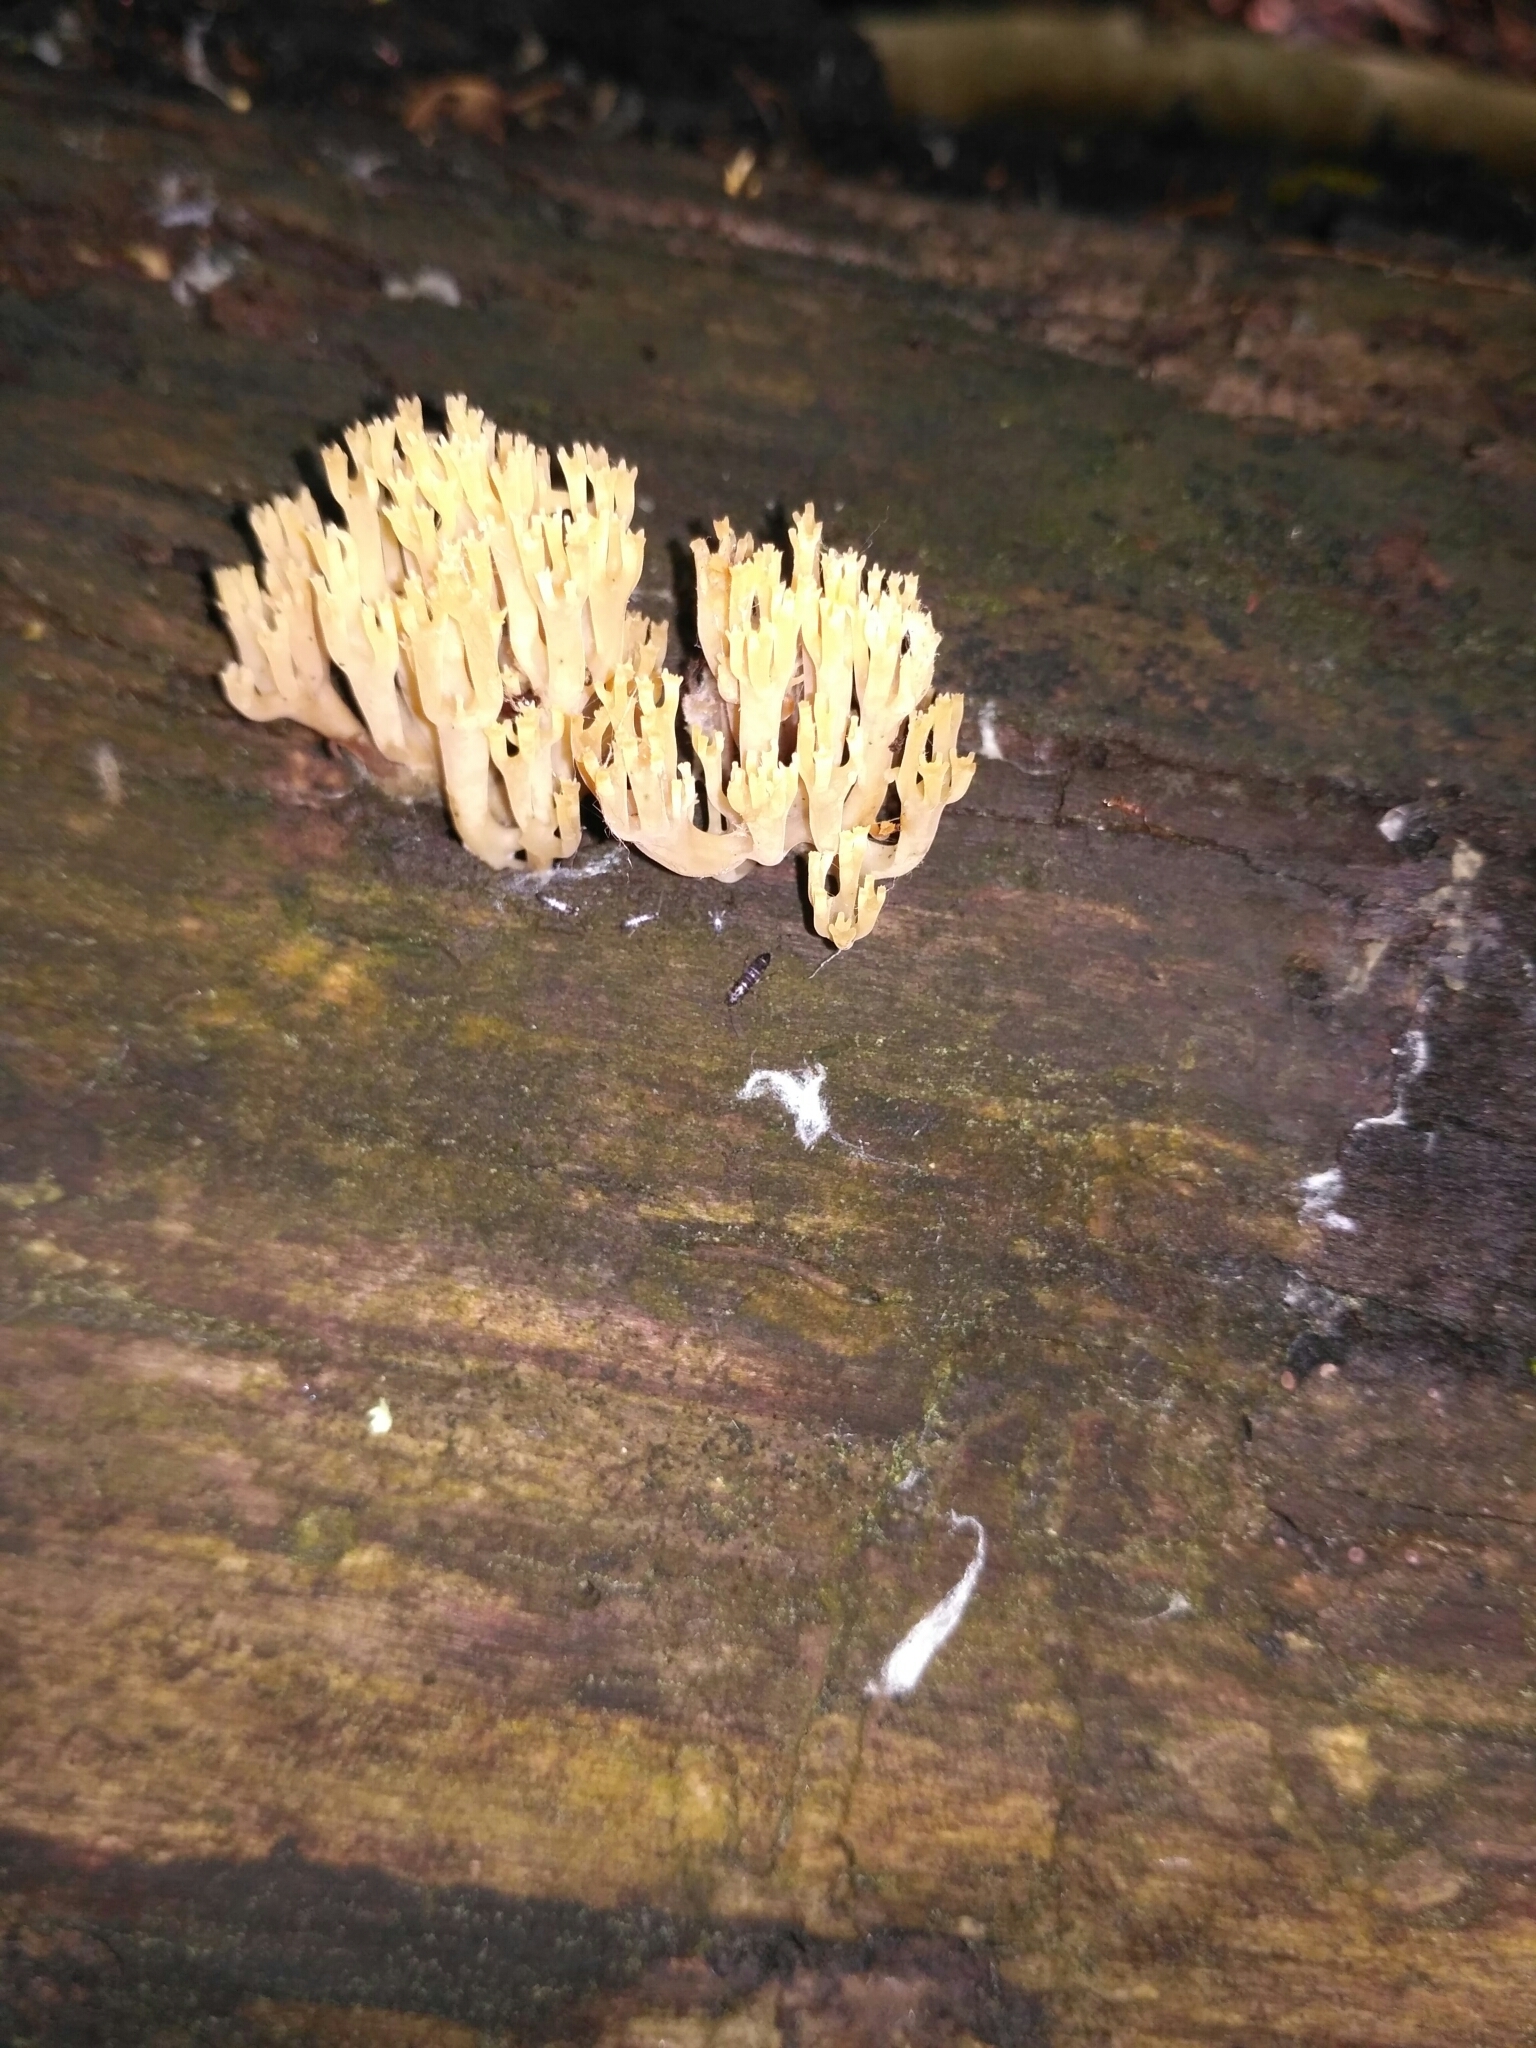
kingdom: Fungi
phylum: Basidiomycota
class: Agaricomycetes
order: Russulales
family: Auriscalpiaceae
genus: Artomyces
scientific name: Artomyces pyxidatus
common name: Crown-tipped coral fungus
